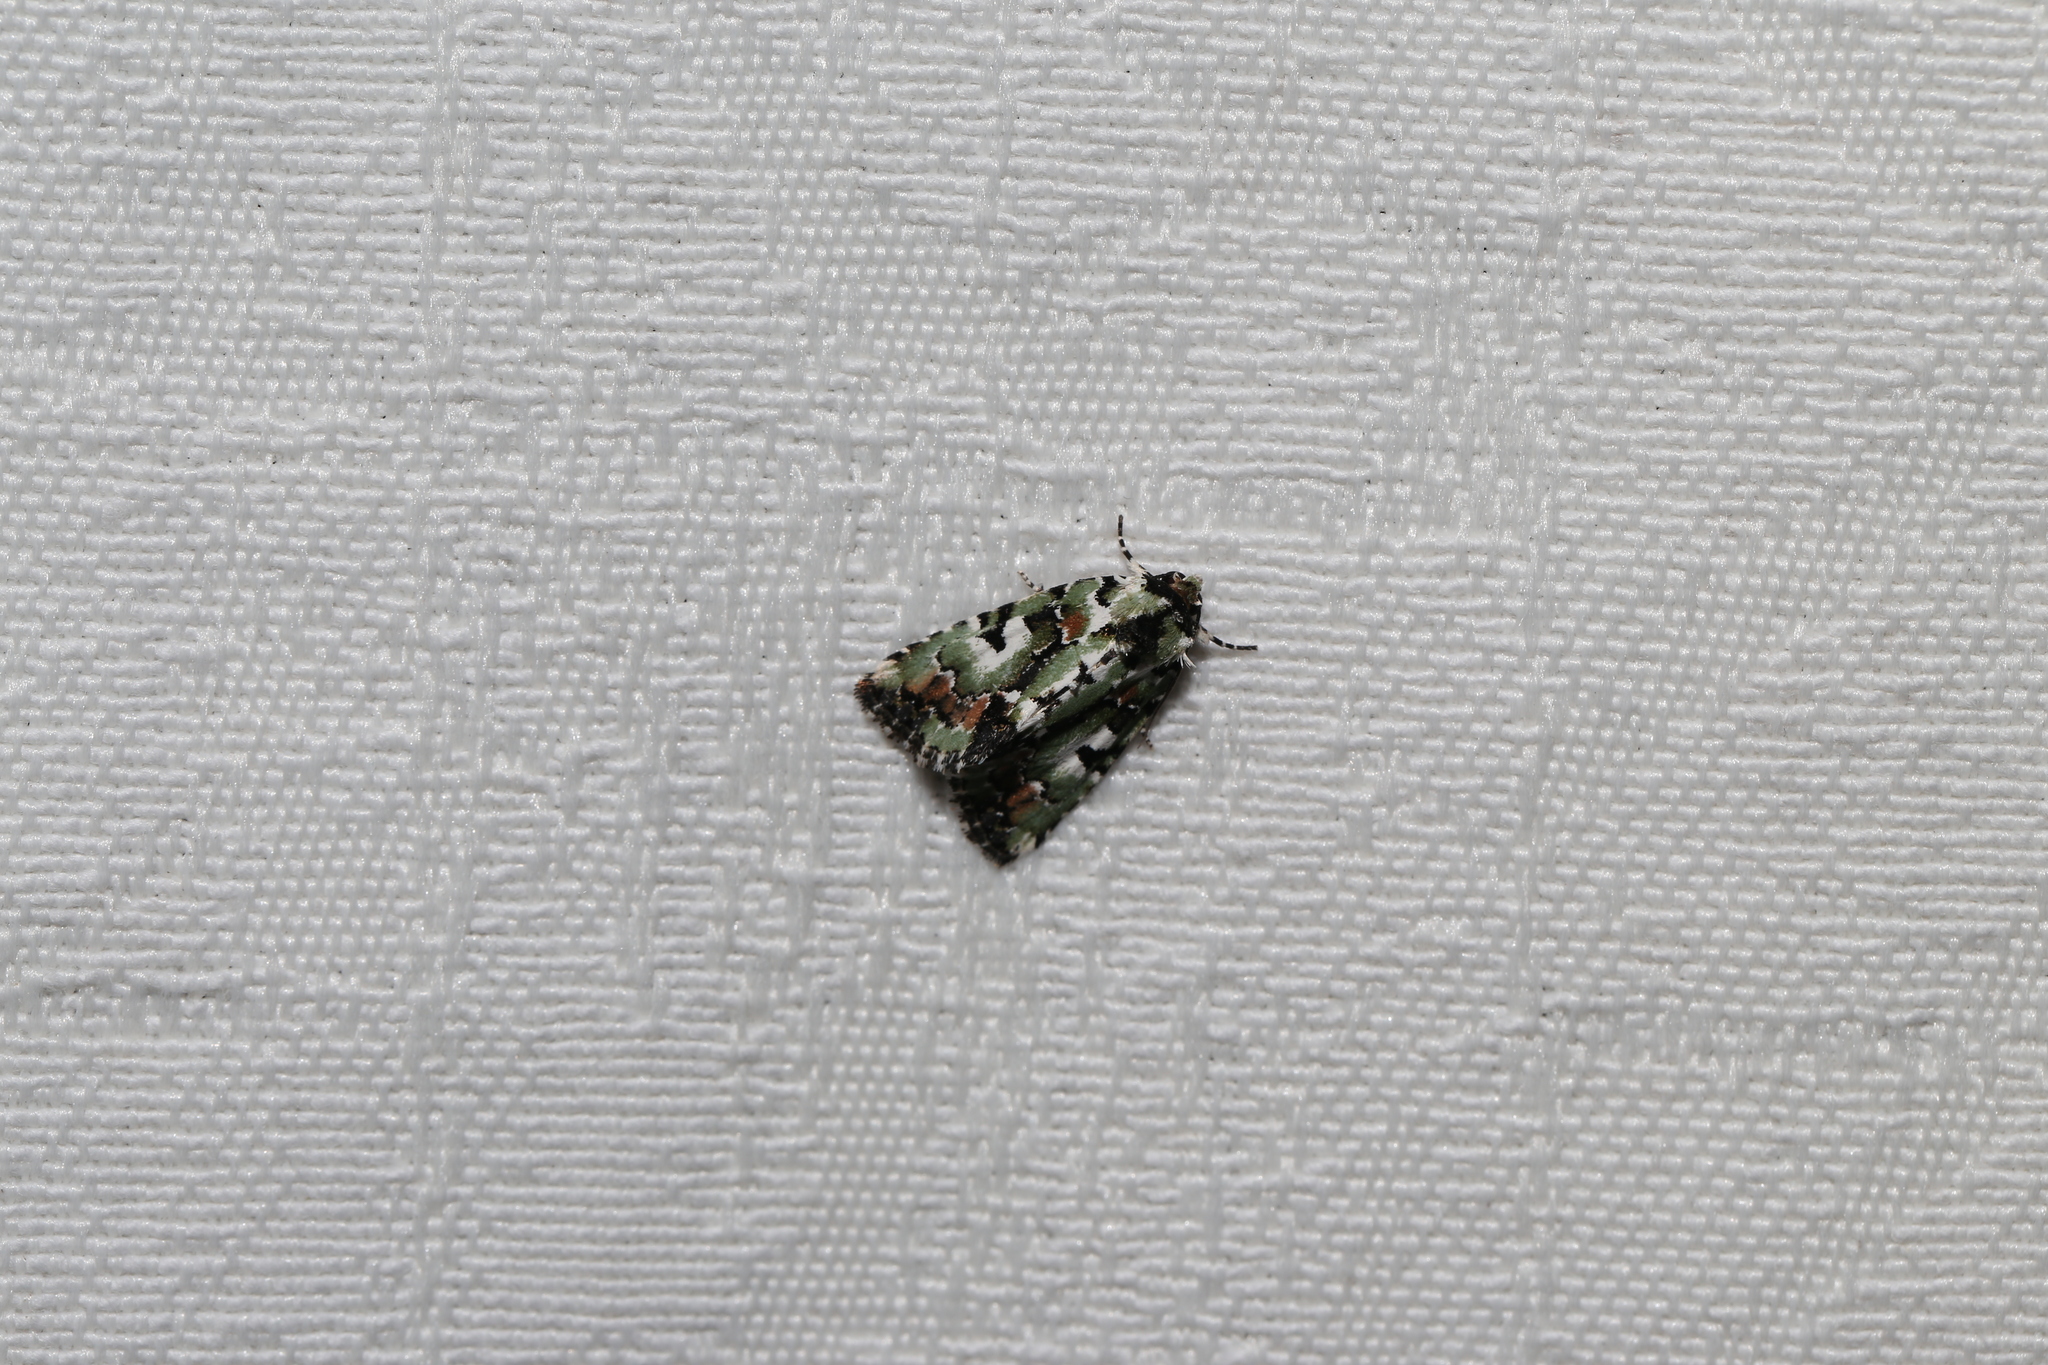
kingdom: Animalia
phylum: Arthropoda
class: Insecta
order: Lepidoptera
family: Noctuidae
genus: Epicyrtica
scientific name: Epicyrtica metallica
